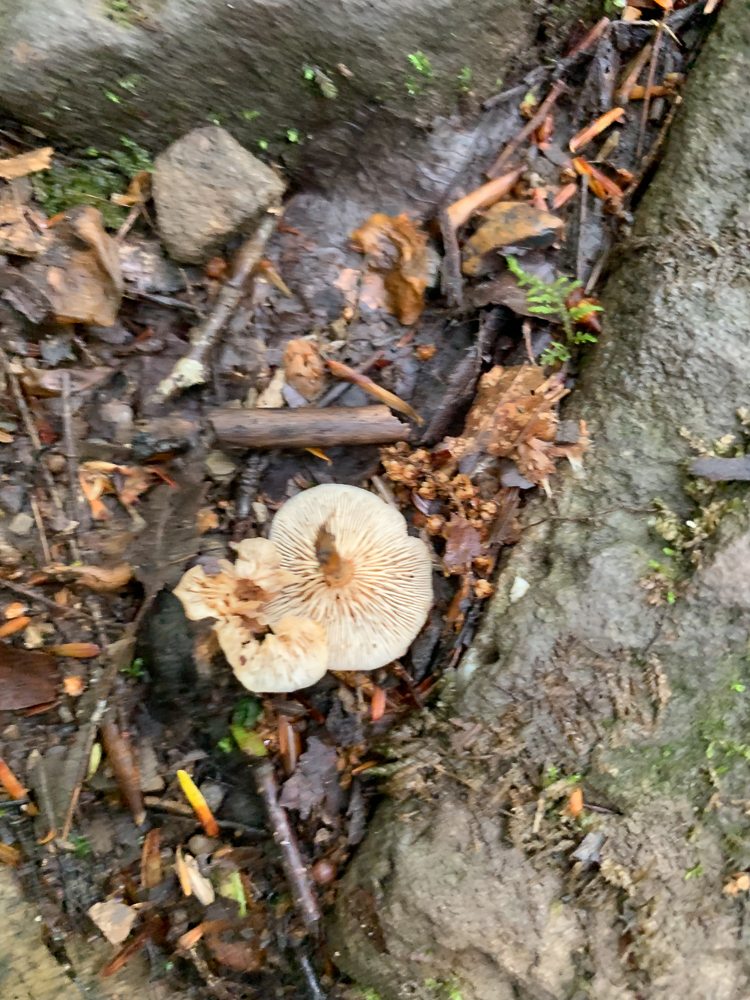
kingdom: Fungi
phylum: Basidiomycota
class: Agaricomycetes
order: Agaricales
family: Omphalotaceae
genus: Gymnopus
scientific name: Gymnopus dryophilus
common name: Penny top
